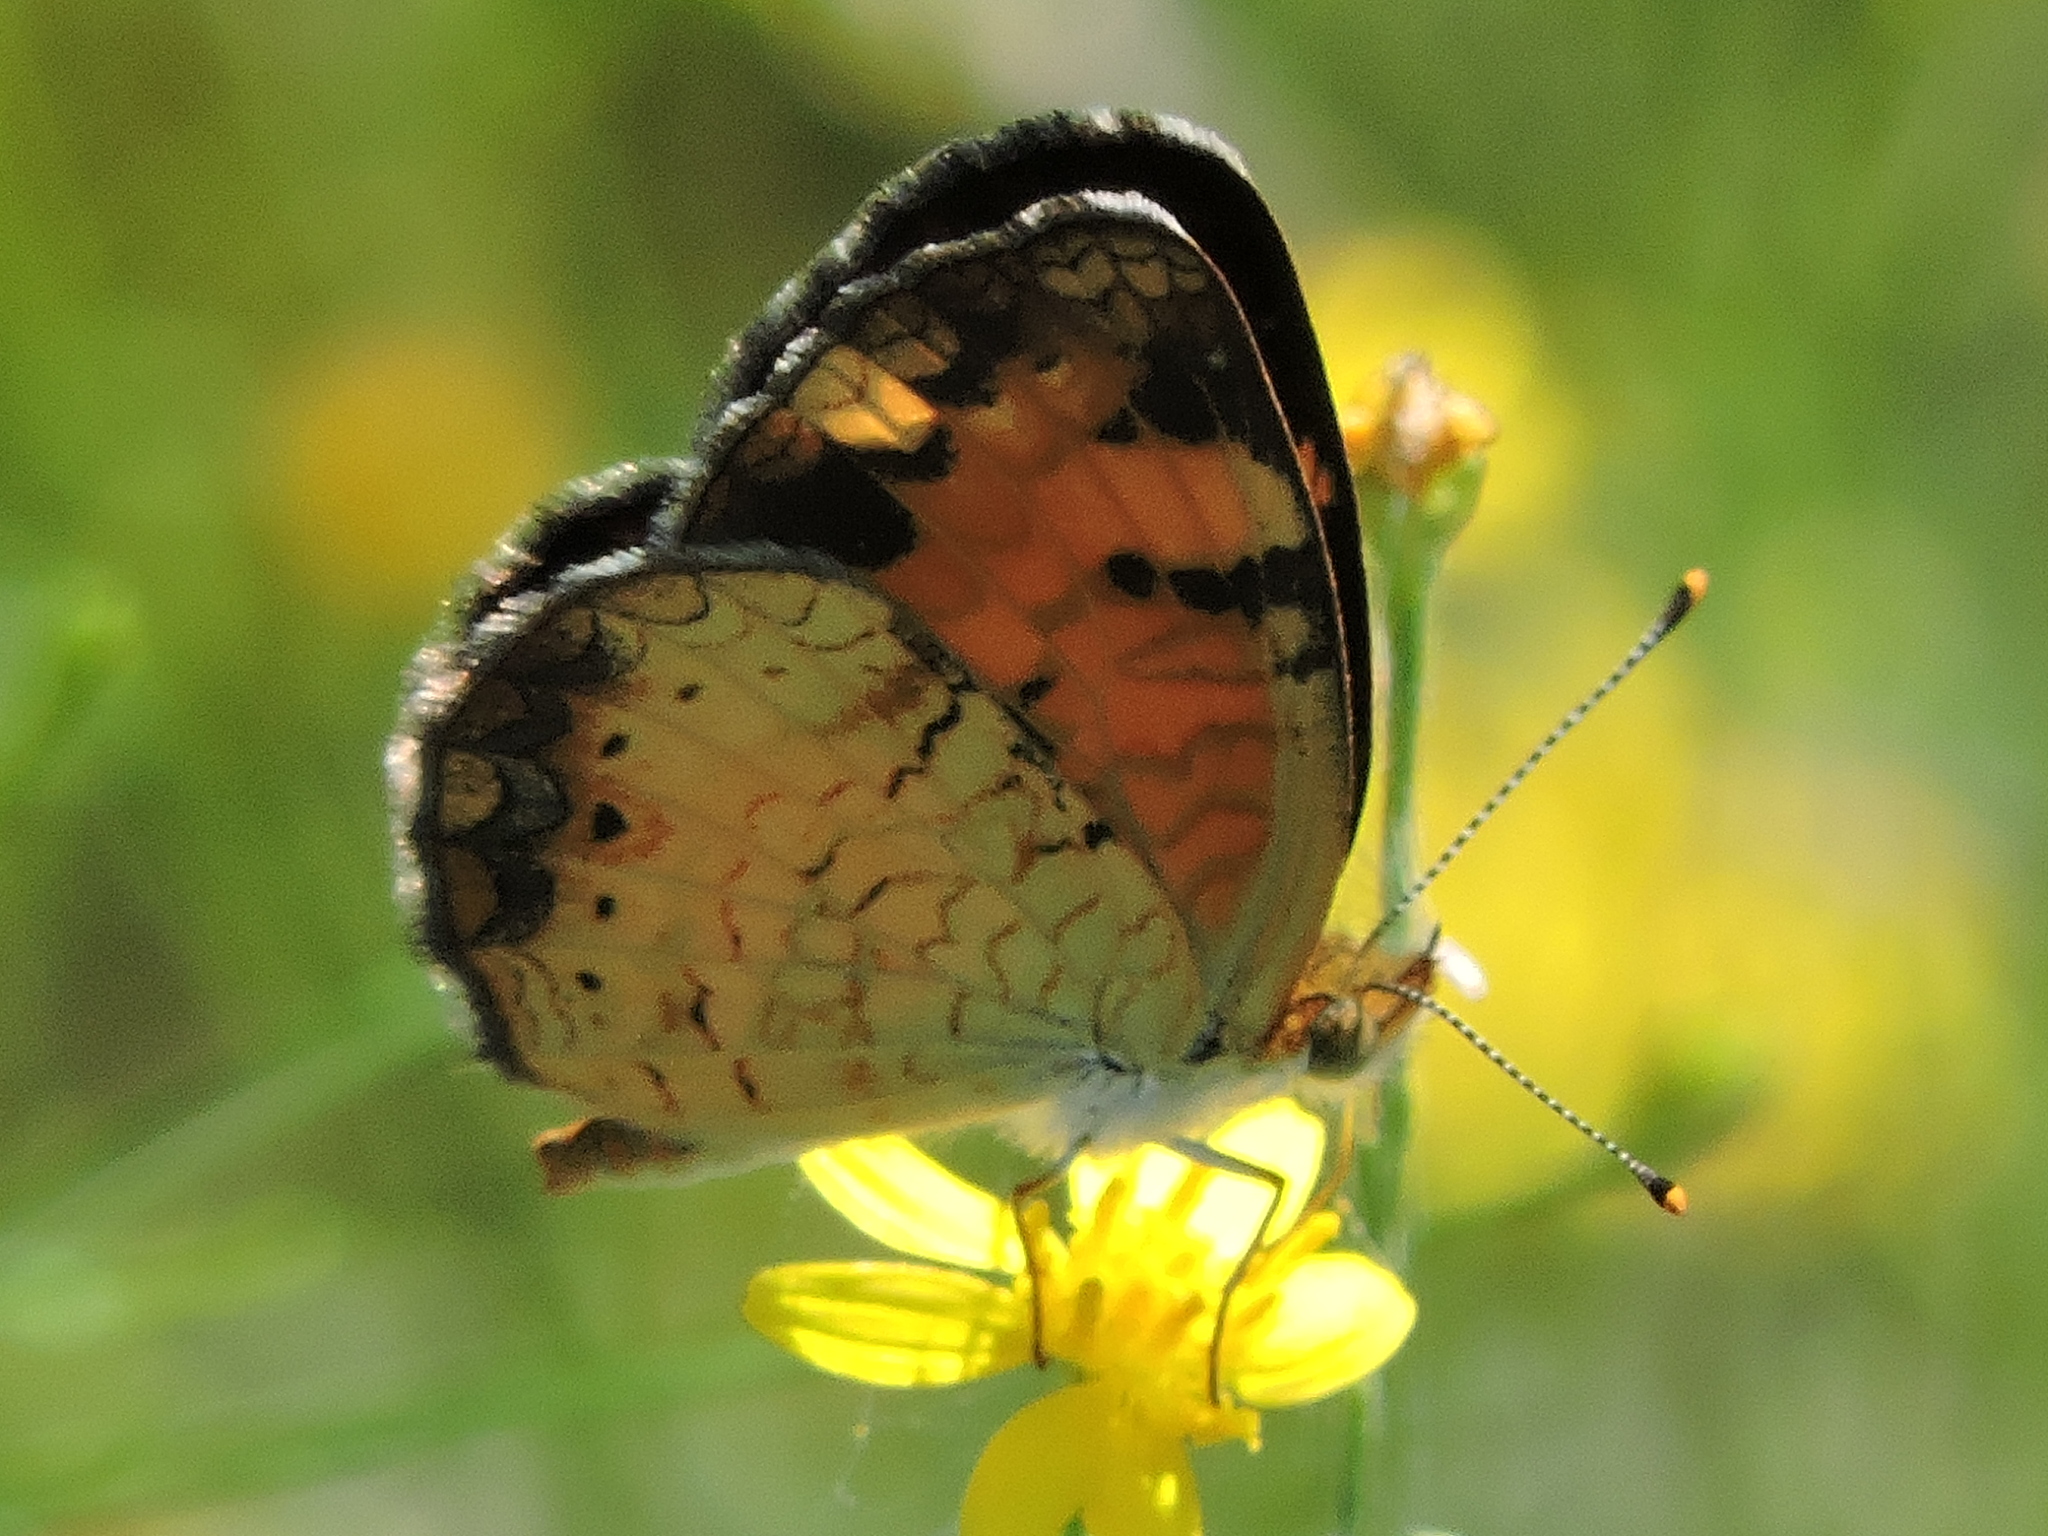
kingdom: Animalia
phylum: Arthropoda
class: Insecta
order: Lepidoptera
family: Nymphalidae
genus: Phyciodes
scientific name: Phyciodes tharos
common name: Pearl crescent
